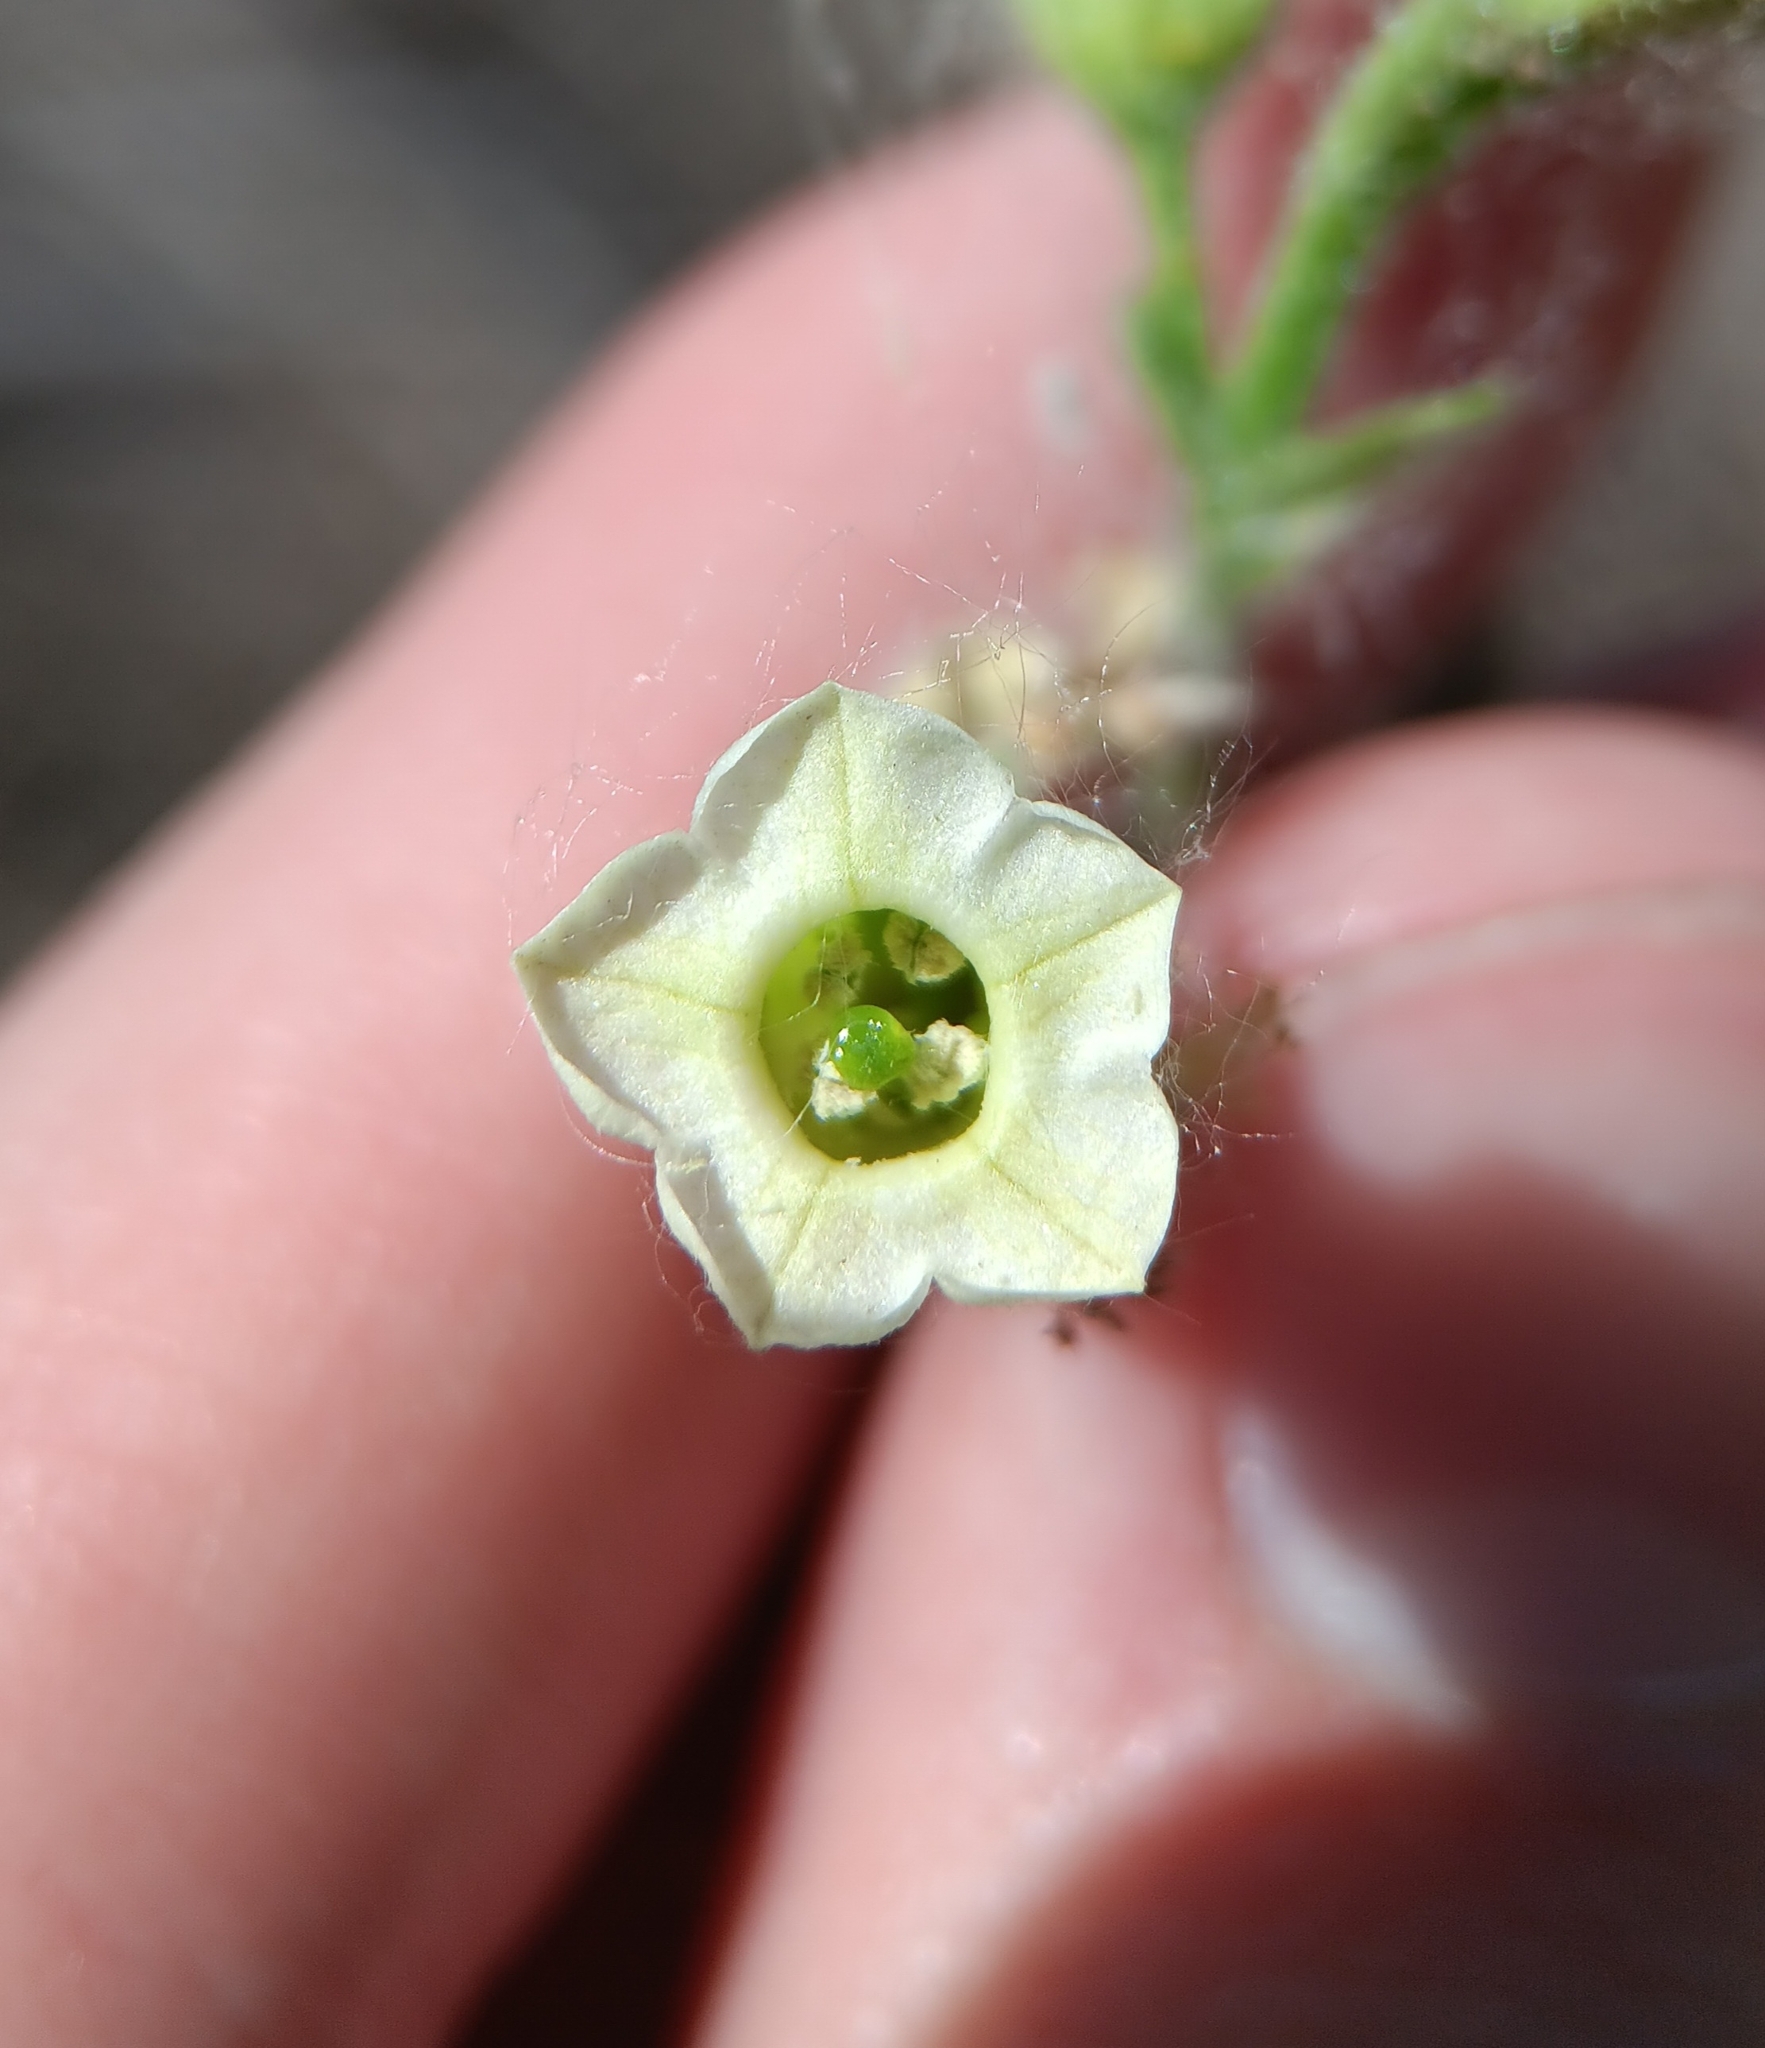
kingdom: Plantae
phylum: Tracheophyta
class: Magnoliopsida
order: Solanales
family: Solanaceae
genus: Nicotiana
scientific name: Nicotiana obtusifolia
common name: Desert tobacco
